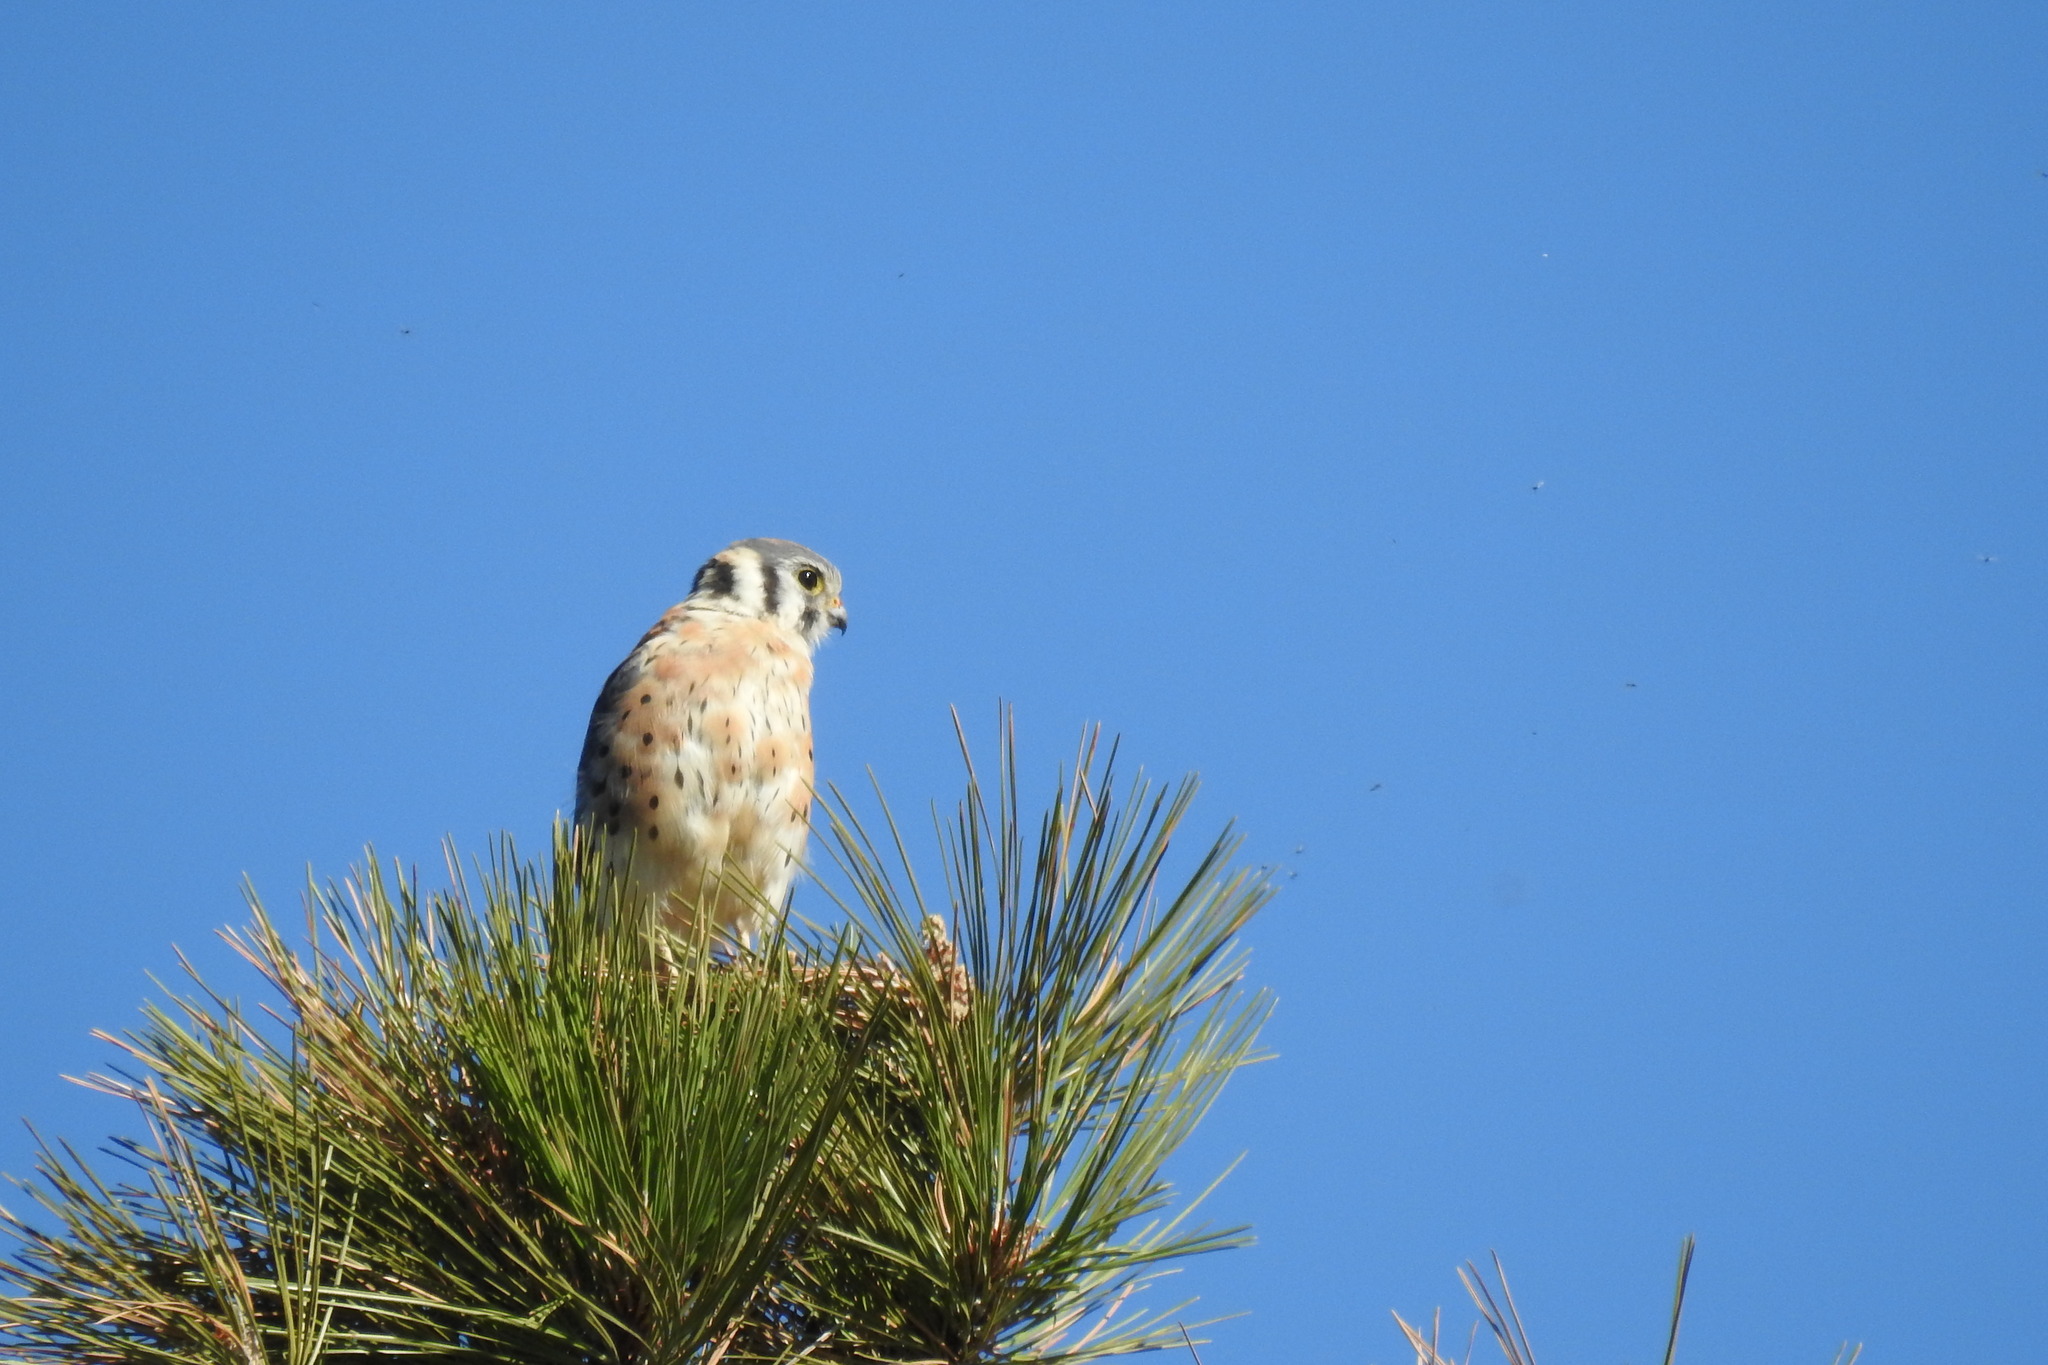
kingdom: Animalia
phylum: Chordata
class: Aves
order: Falconiformes
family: Falconidae
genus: Falco
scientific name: Falco sparverius
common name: American kestrel
